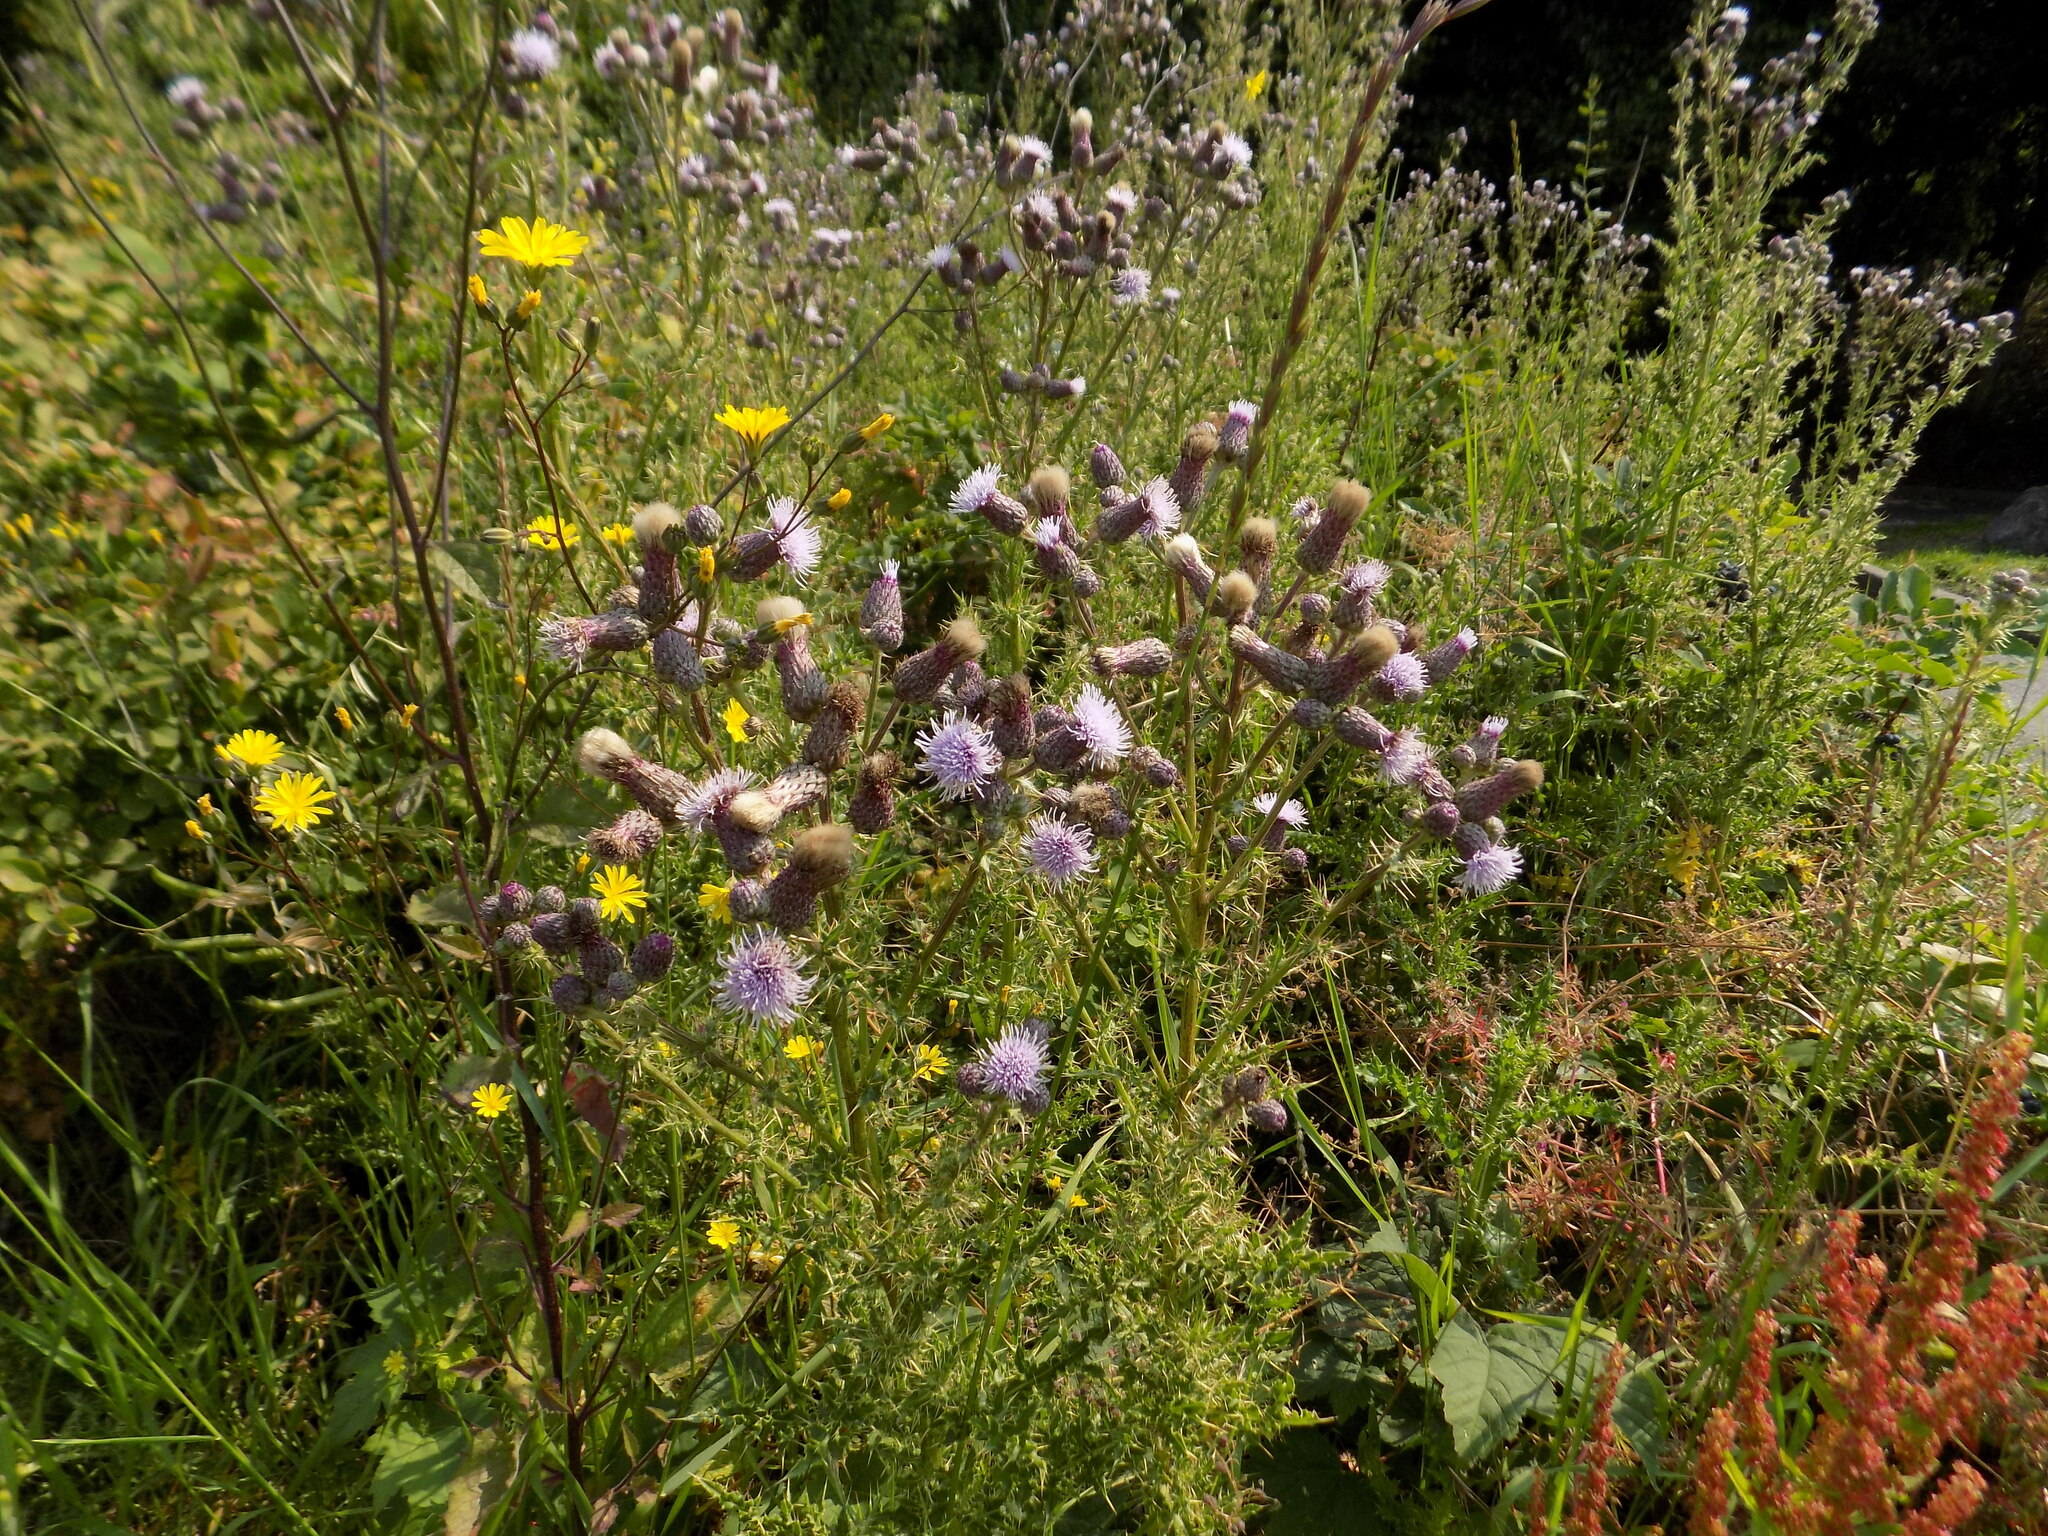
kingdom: Plantae
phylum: Tracheophyta
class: Magnoliopsida
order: Asterales
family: Asteraceae
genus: Cirsium
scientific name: Cirsium arvense
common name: Creeping thistle
